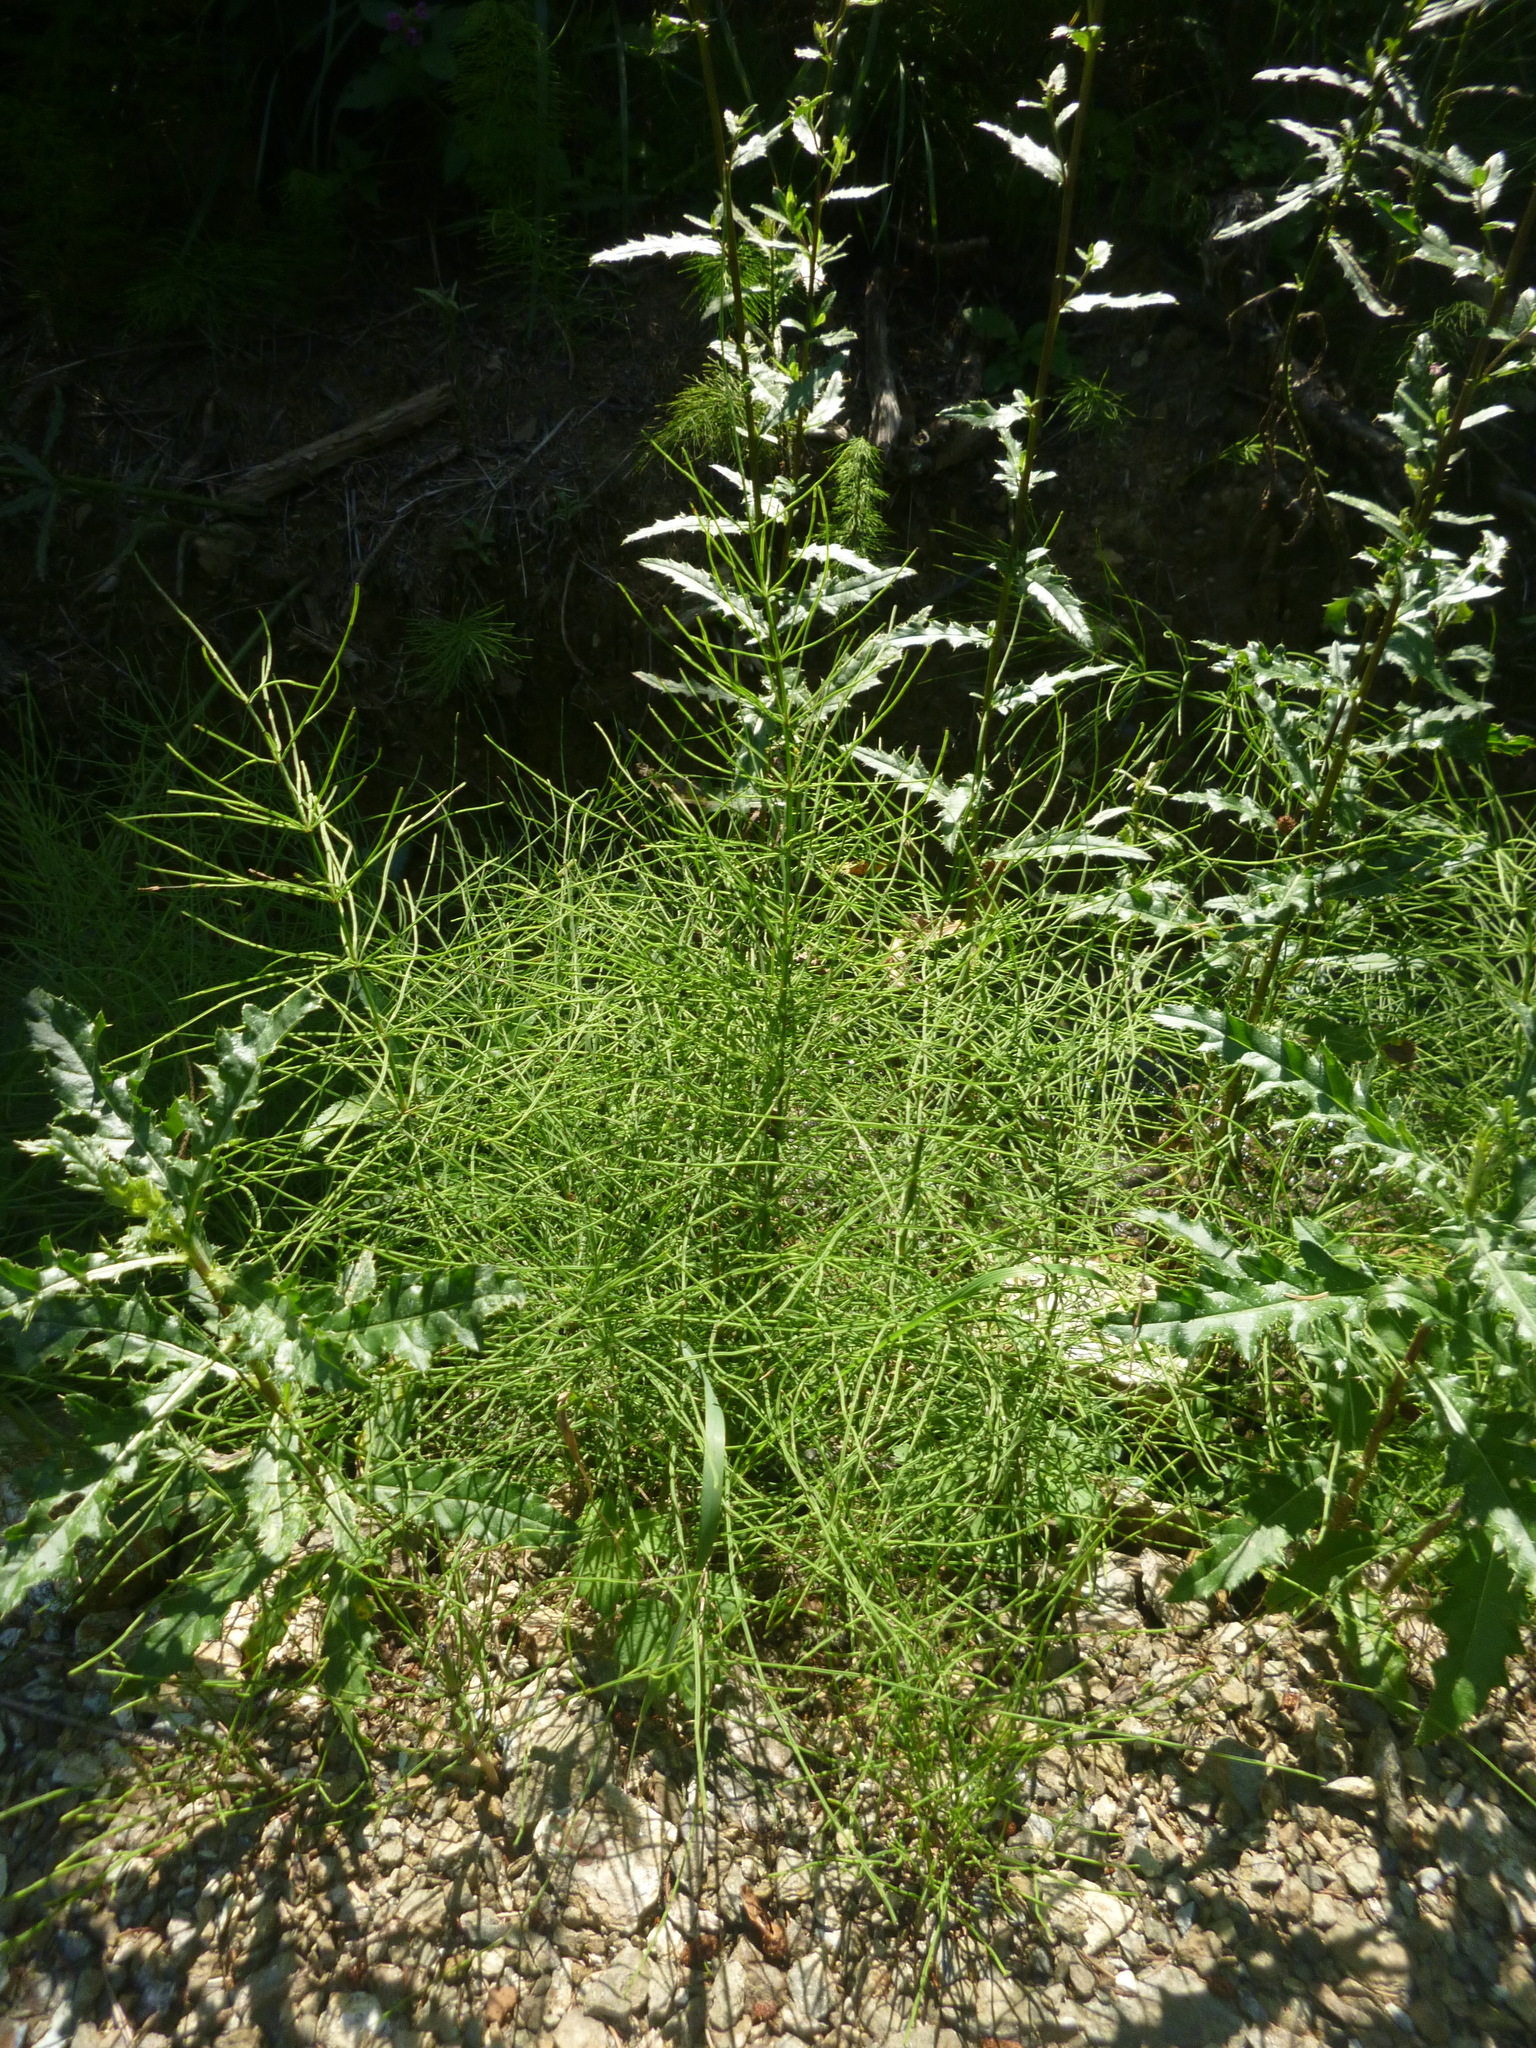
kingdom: Plantae
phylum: Tracheophyta
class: Polypodiopsida
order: Equisetales
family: Equisetaceae
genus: Equisetum
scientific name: Equisetum arvense
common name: Field horsetail
